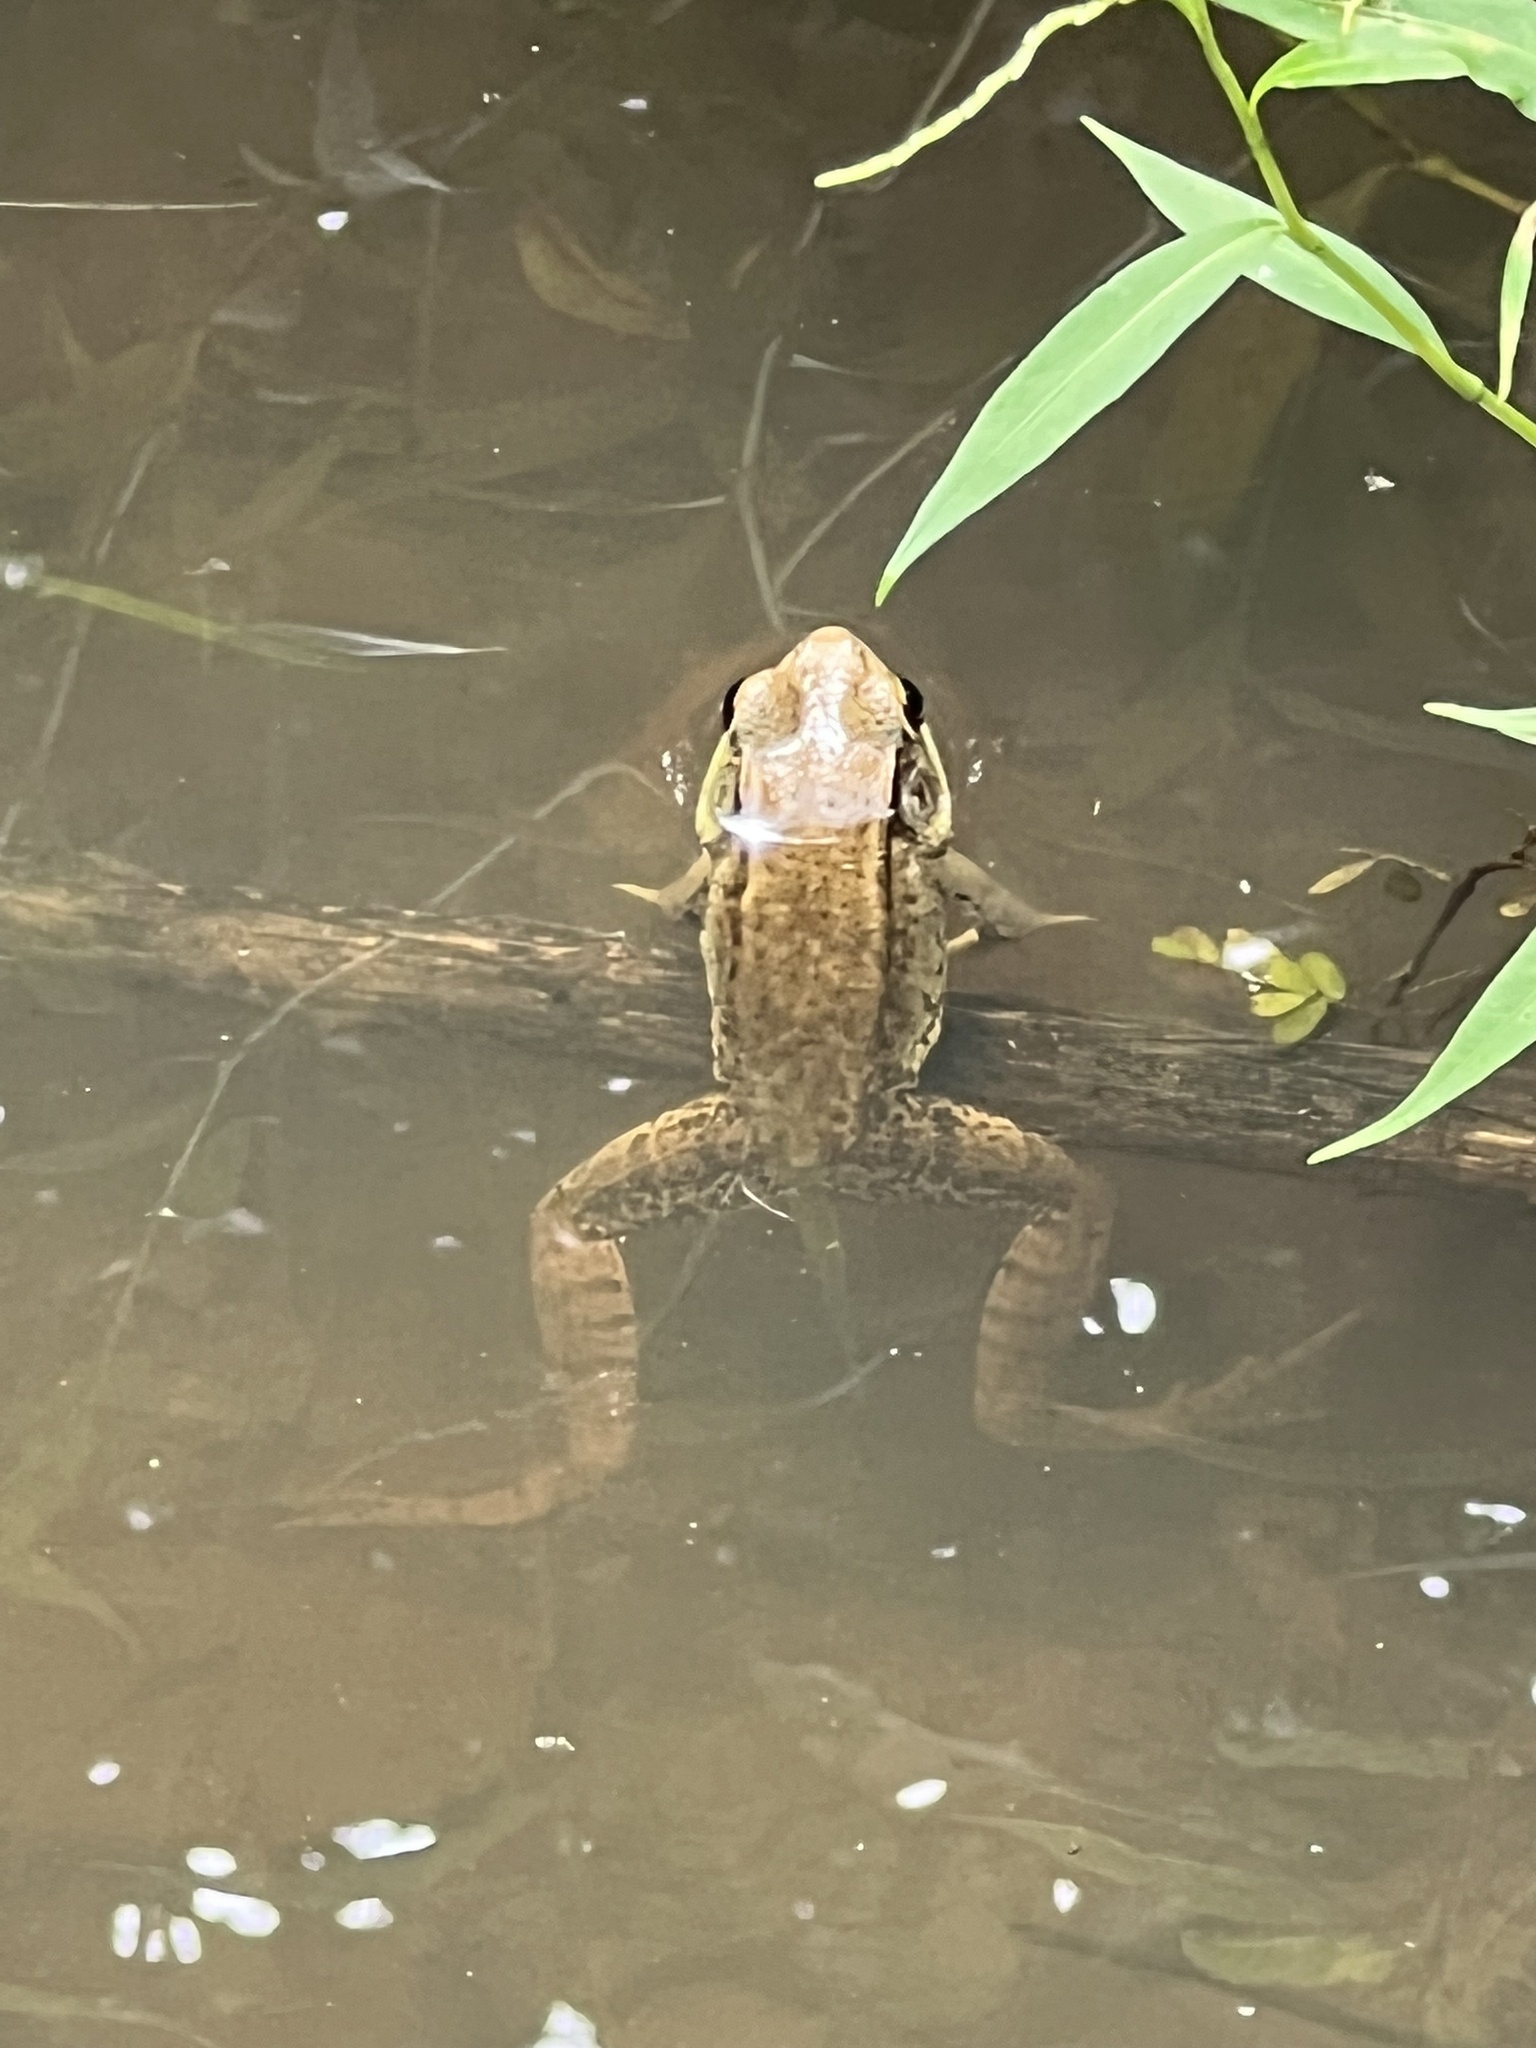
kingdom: Animalia
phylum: Chordata
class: Amphibia
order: Anura
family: Ranidae
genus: Lithobates
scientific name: Lithobates clamitans
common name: Green frog
